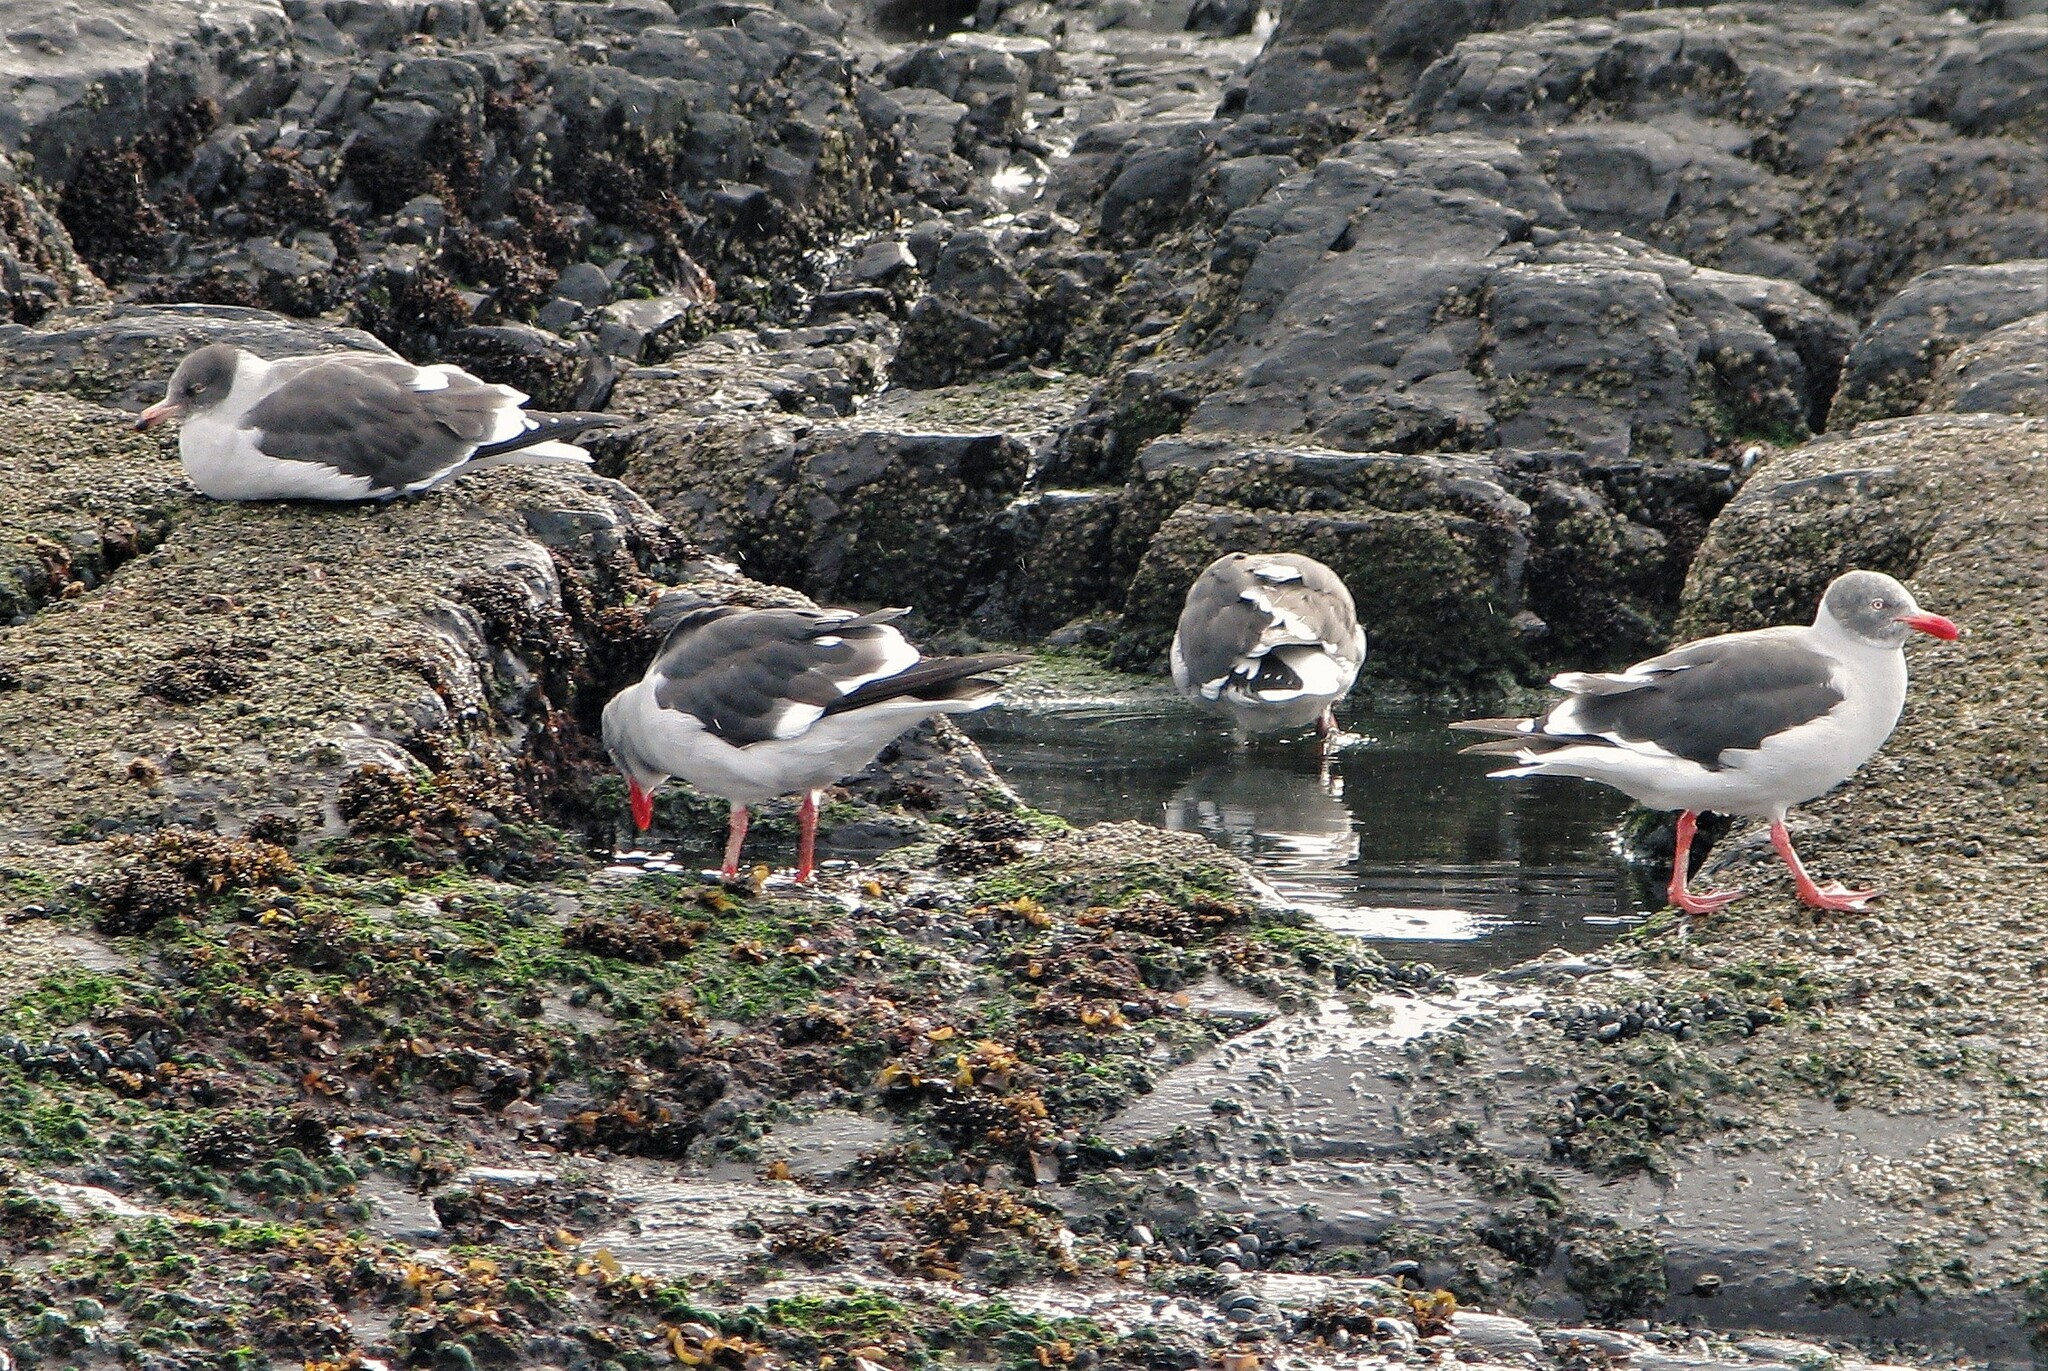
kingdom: Animalia
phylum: Chordata
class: Aves
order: Charadriiformes
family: Laridae
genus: Leucophaeus
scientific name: Leucophaeus scoresbii
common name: Dolphin gull
